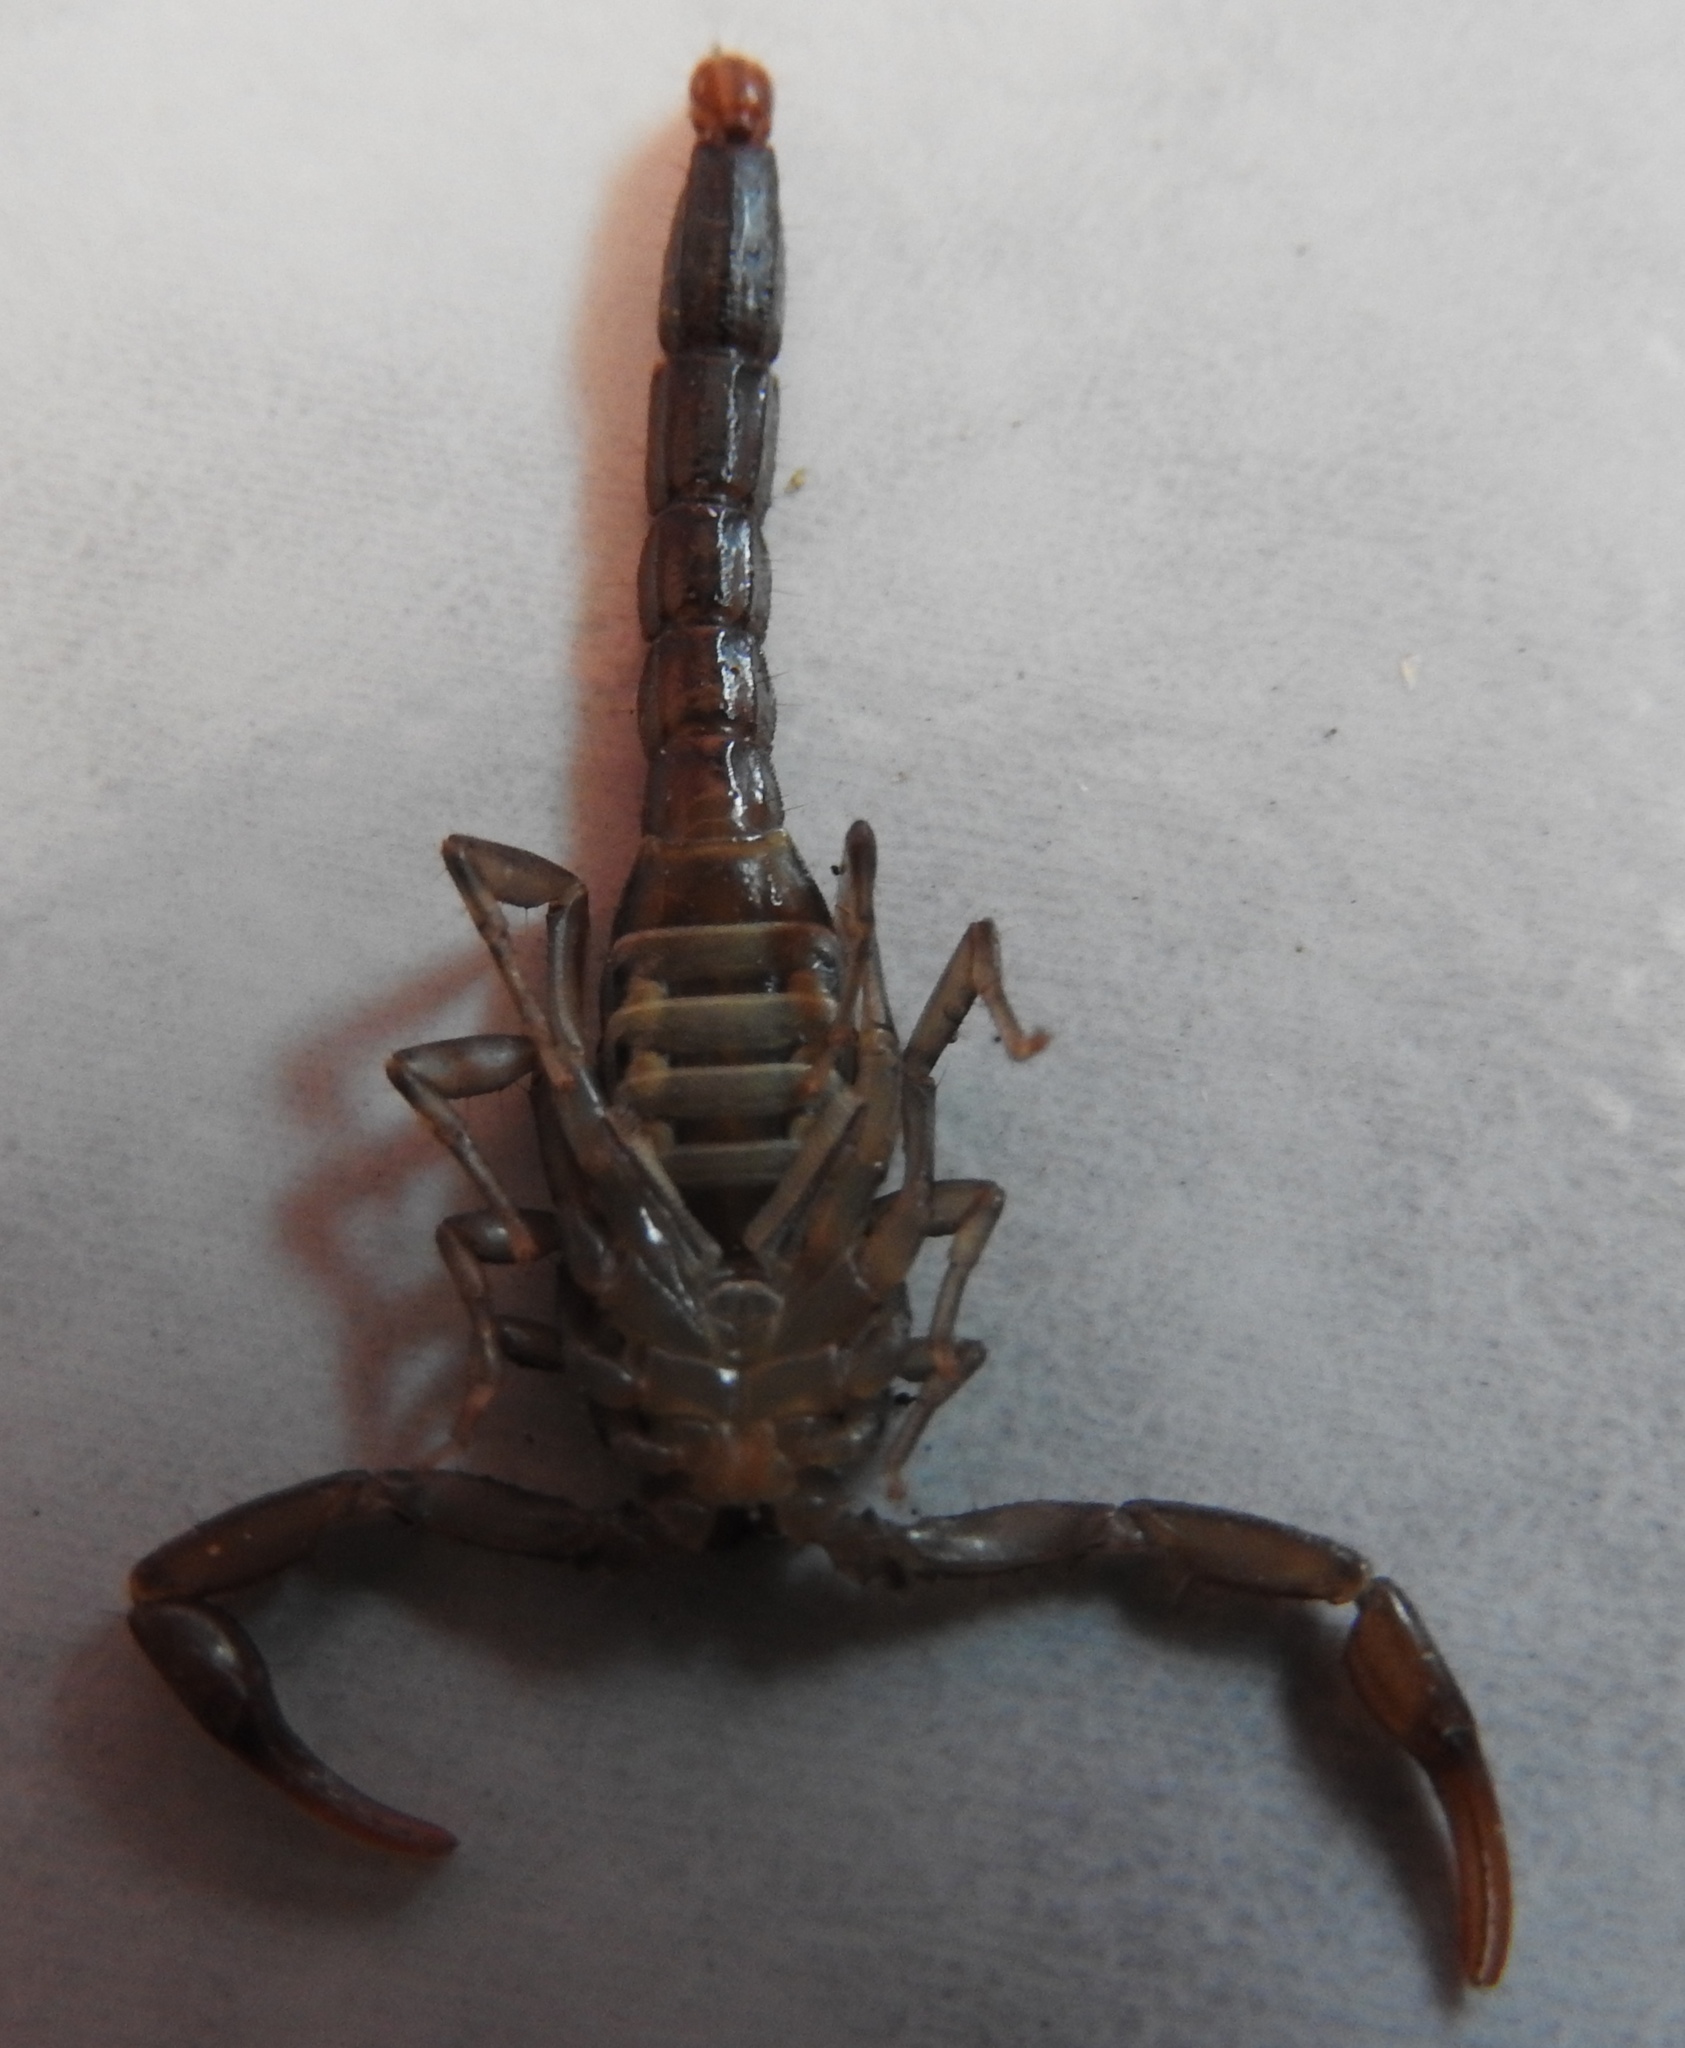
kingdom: Animalia
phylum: Arthropoda
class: Arachnida
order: Scorpiones
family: Vaejovidae
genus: Vaejovis
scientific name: Vaejovis nigrescens
